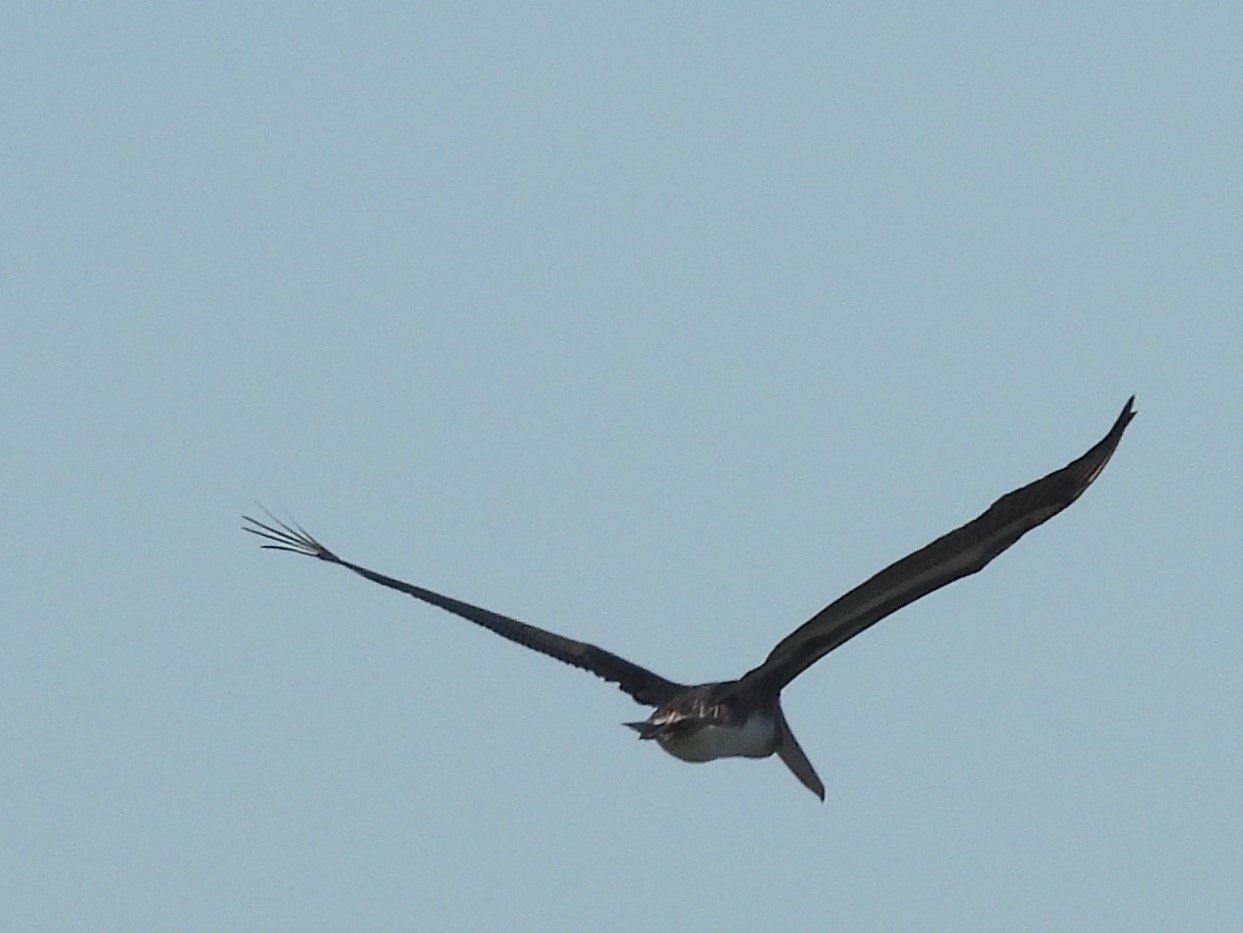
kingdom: Animalia
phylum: Chordata
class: Aves
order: Pelecaniformes
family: Pelecanidae
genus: Pelecanus
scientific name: Pelecanus occidentalis
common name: Brown pelican
